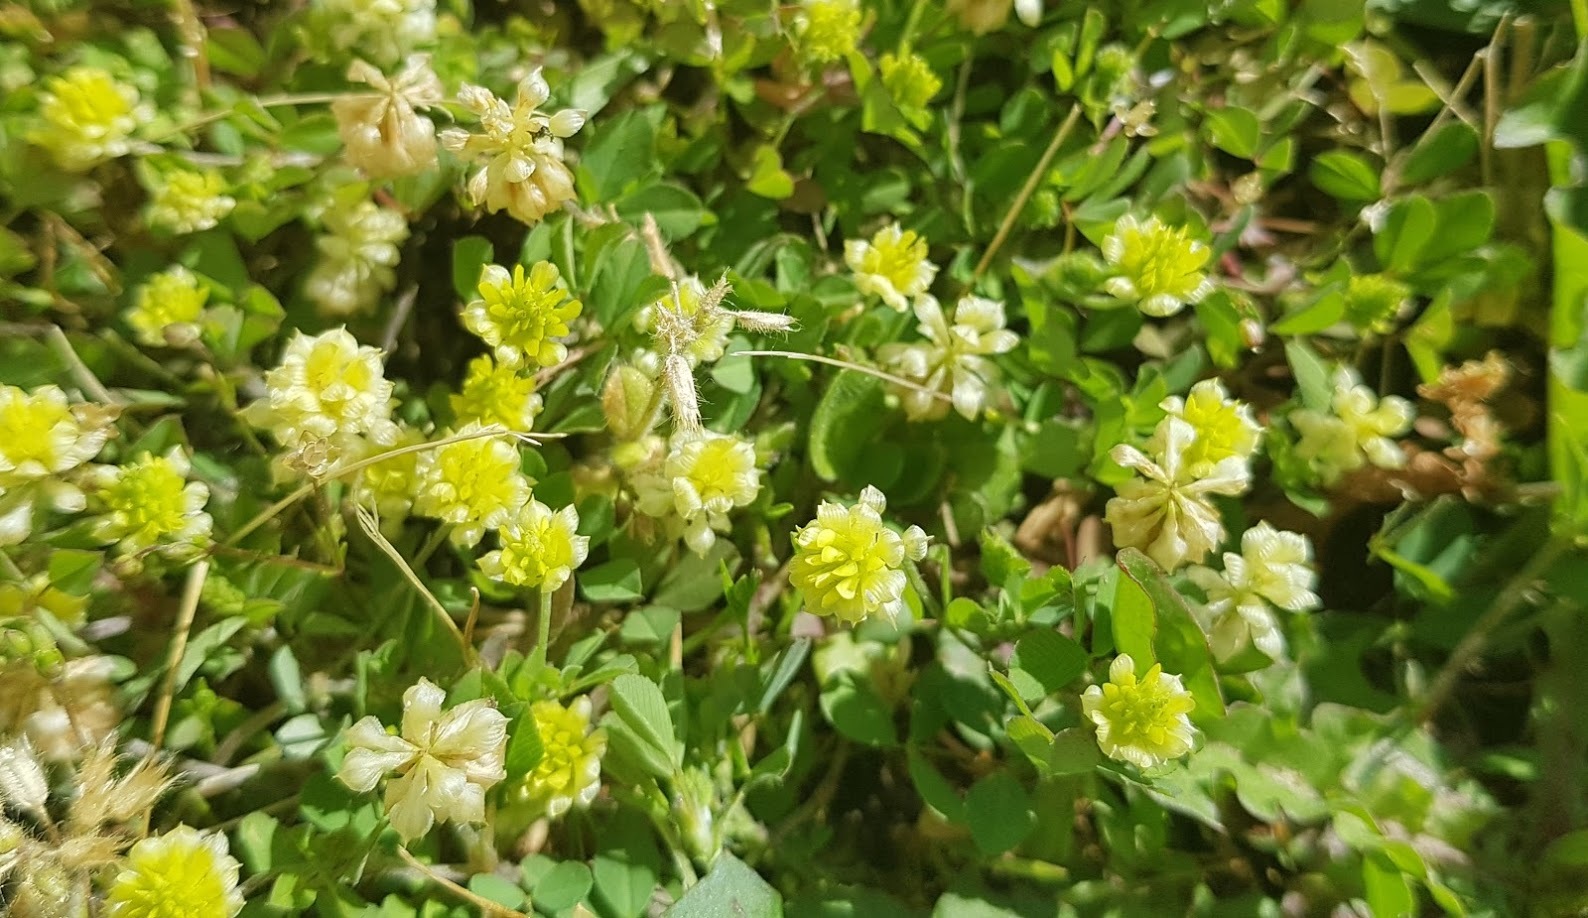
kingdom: Plantae
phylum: Tracheophyta
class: Magnoliopsida
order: Fabales
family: Fabaceae
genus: Trifolium
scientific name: Trifolium campestre
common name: Field clover
